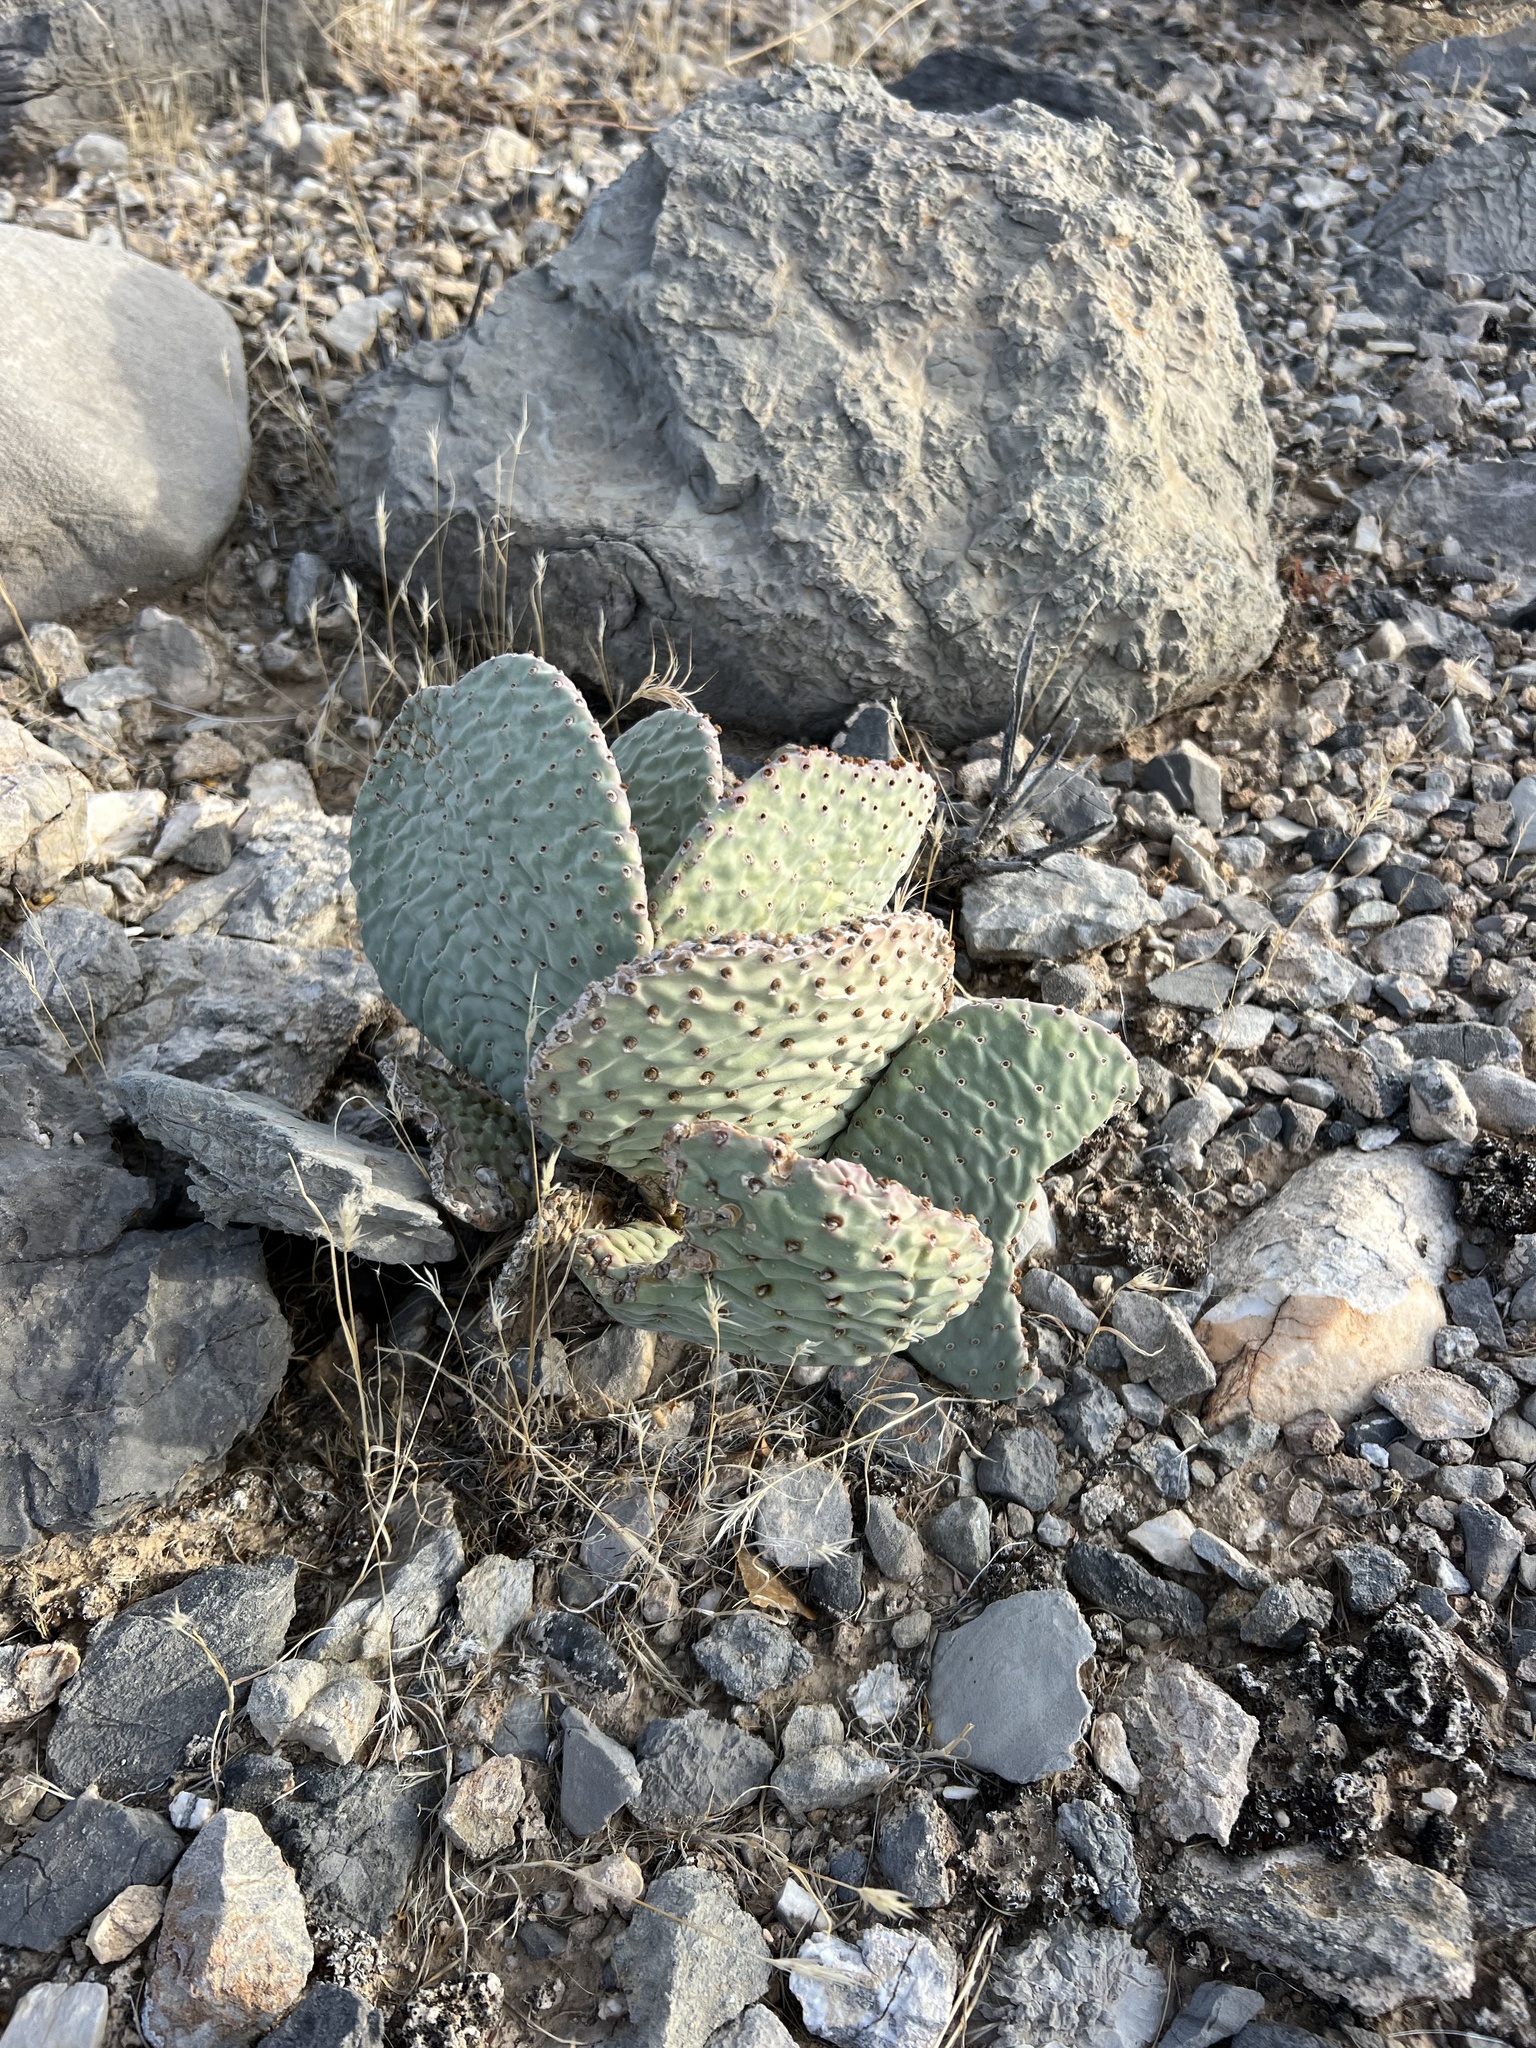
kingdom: Plantae
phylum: Tracheophyta
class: Magnoliopsida
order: Caryophyllales
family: Cactaceae
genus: Opuntia
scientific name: Opuntia basilaris
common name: Beavertail prickly-pear
